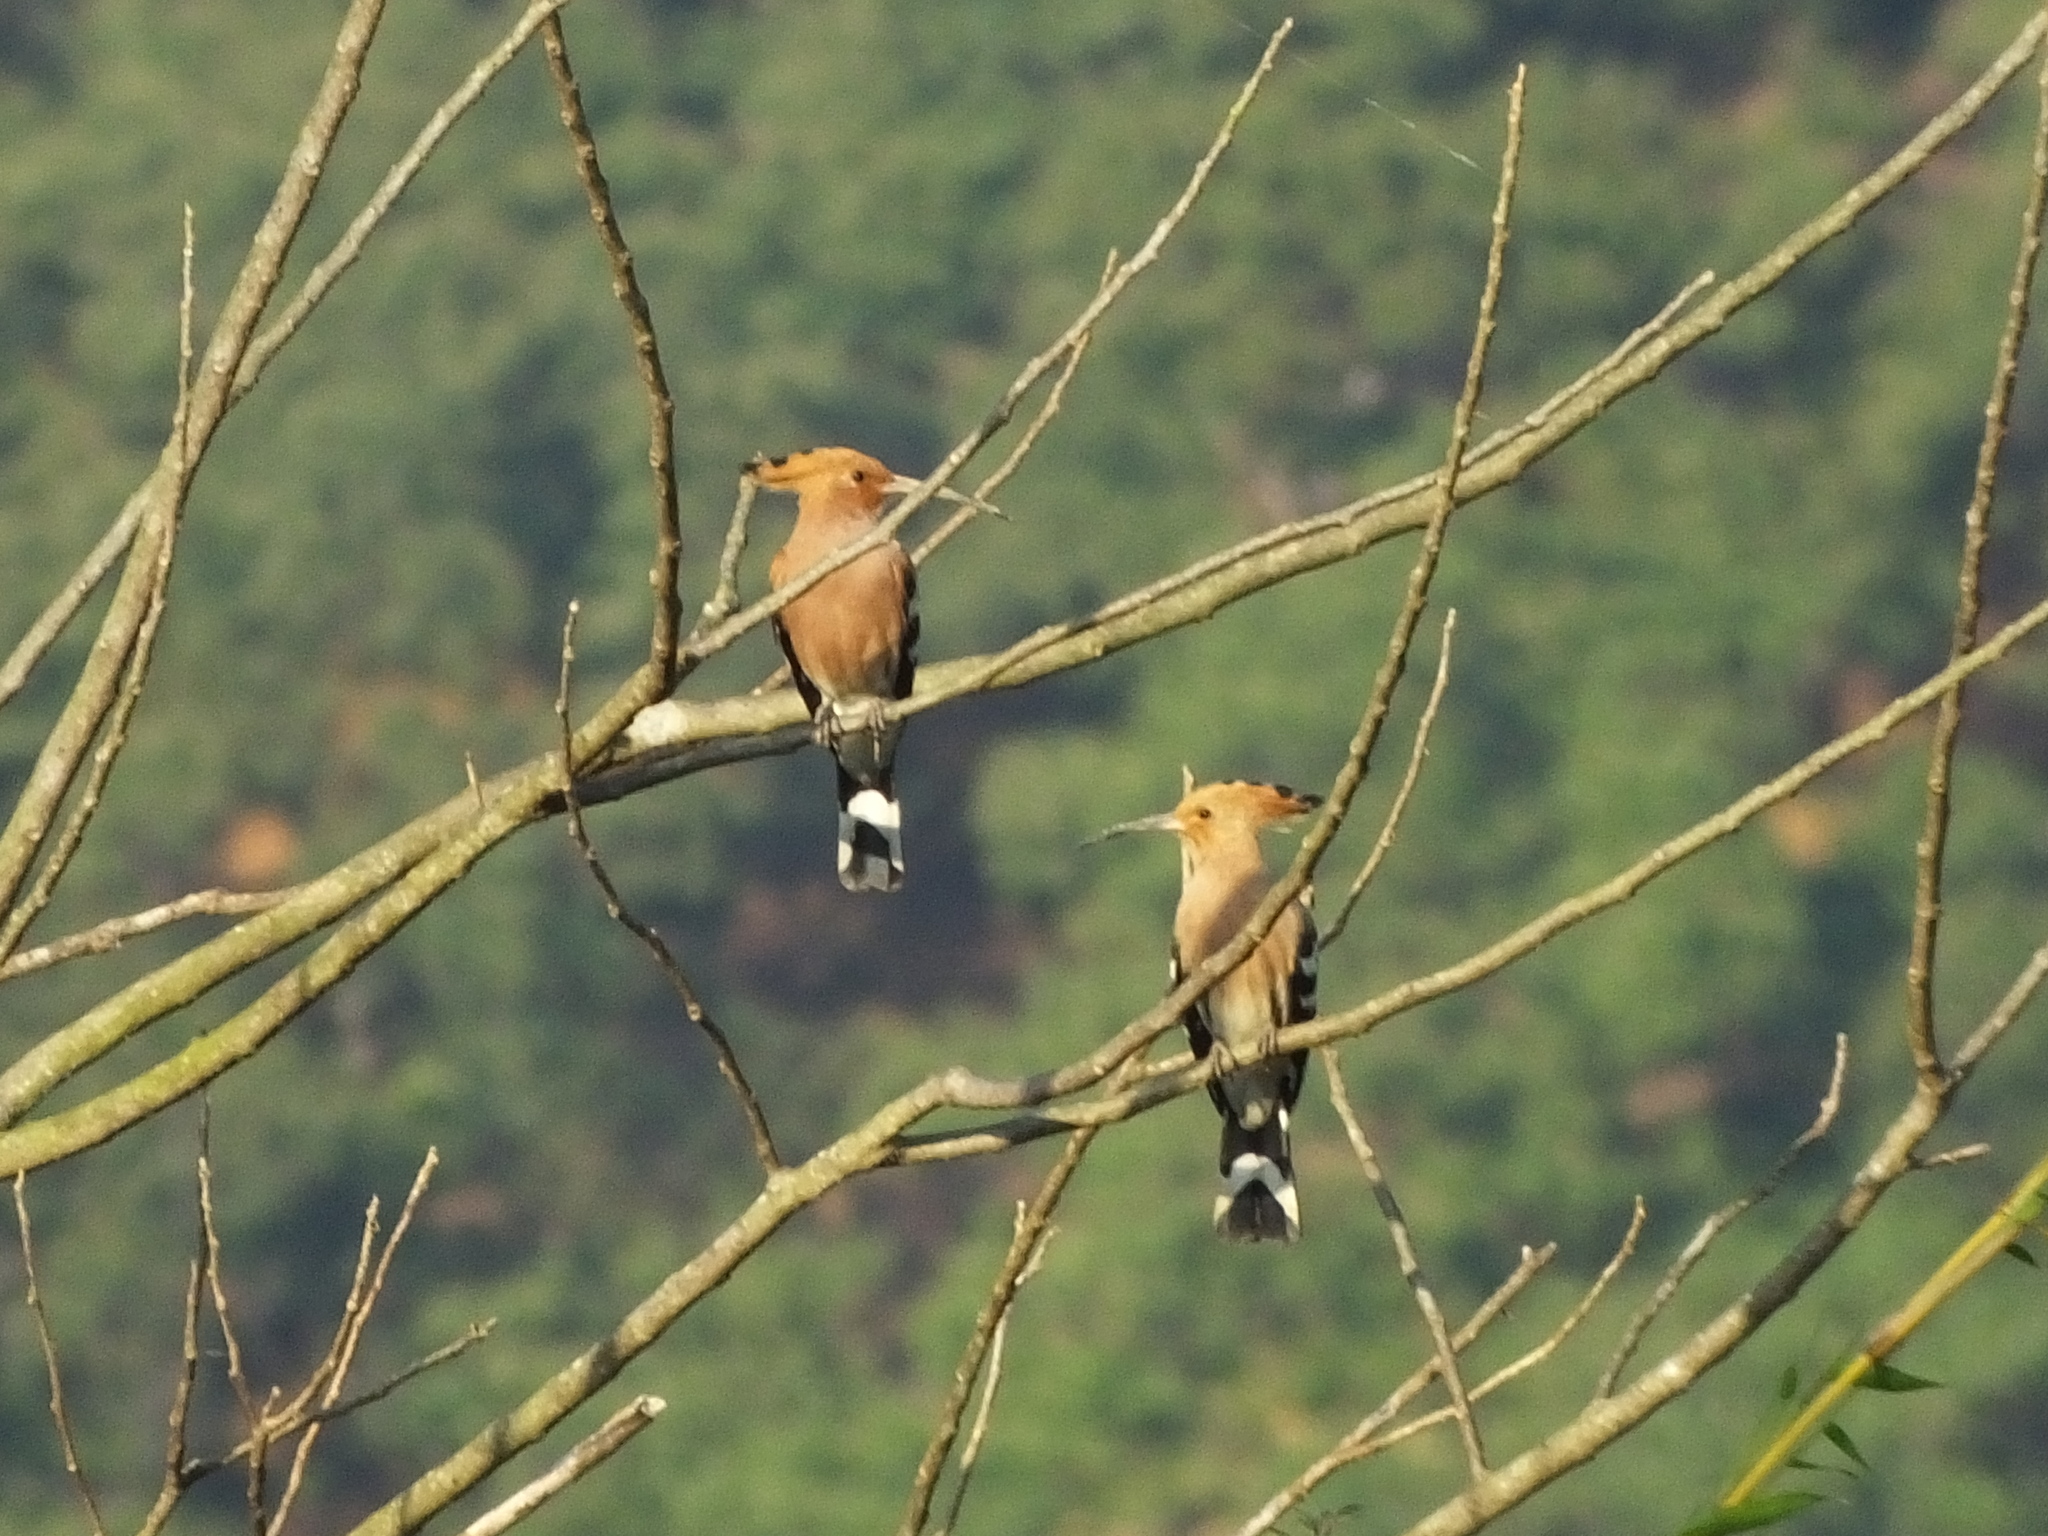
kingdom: Animalia
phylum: Chordata
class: Aves
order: Bucerotiformes
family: Upupidae
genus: Upupa
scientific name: Upupa epops
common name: Eurasian hoopoe
